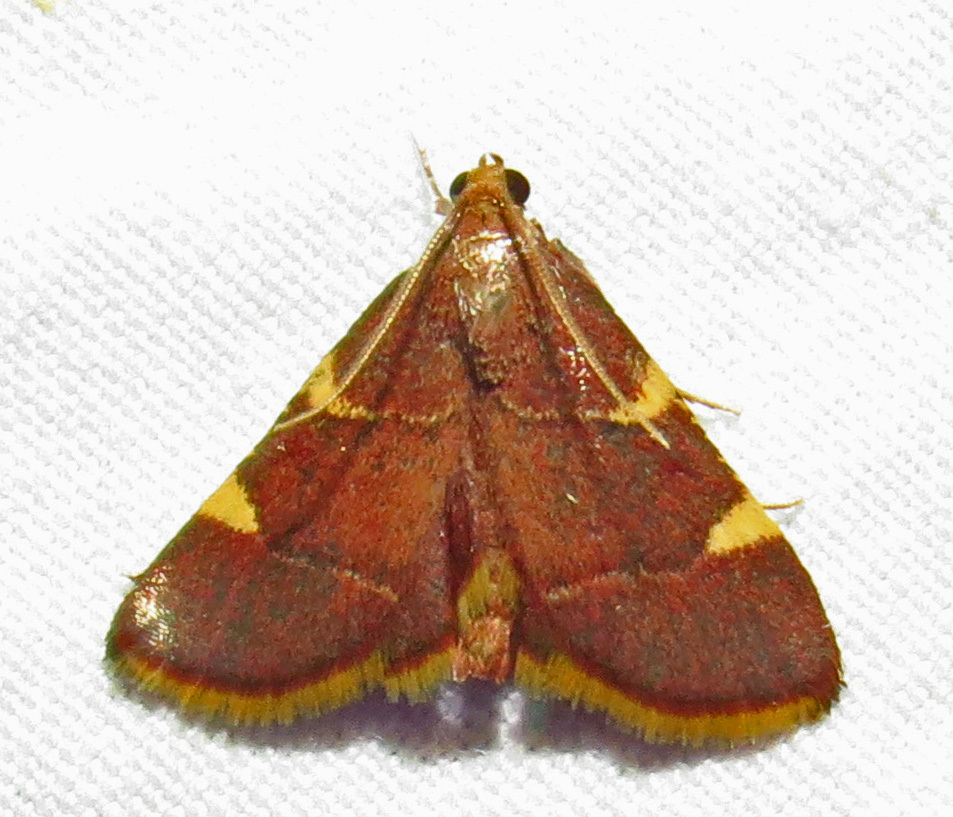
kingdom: Animalia
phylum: Arthropoda
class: Insecta
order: Lepidoptera
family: Pyralidae
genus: Hypsopygia
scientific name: Hypsopygia olinalis
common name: Yellow-fringed dolichomia moth
